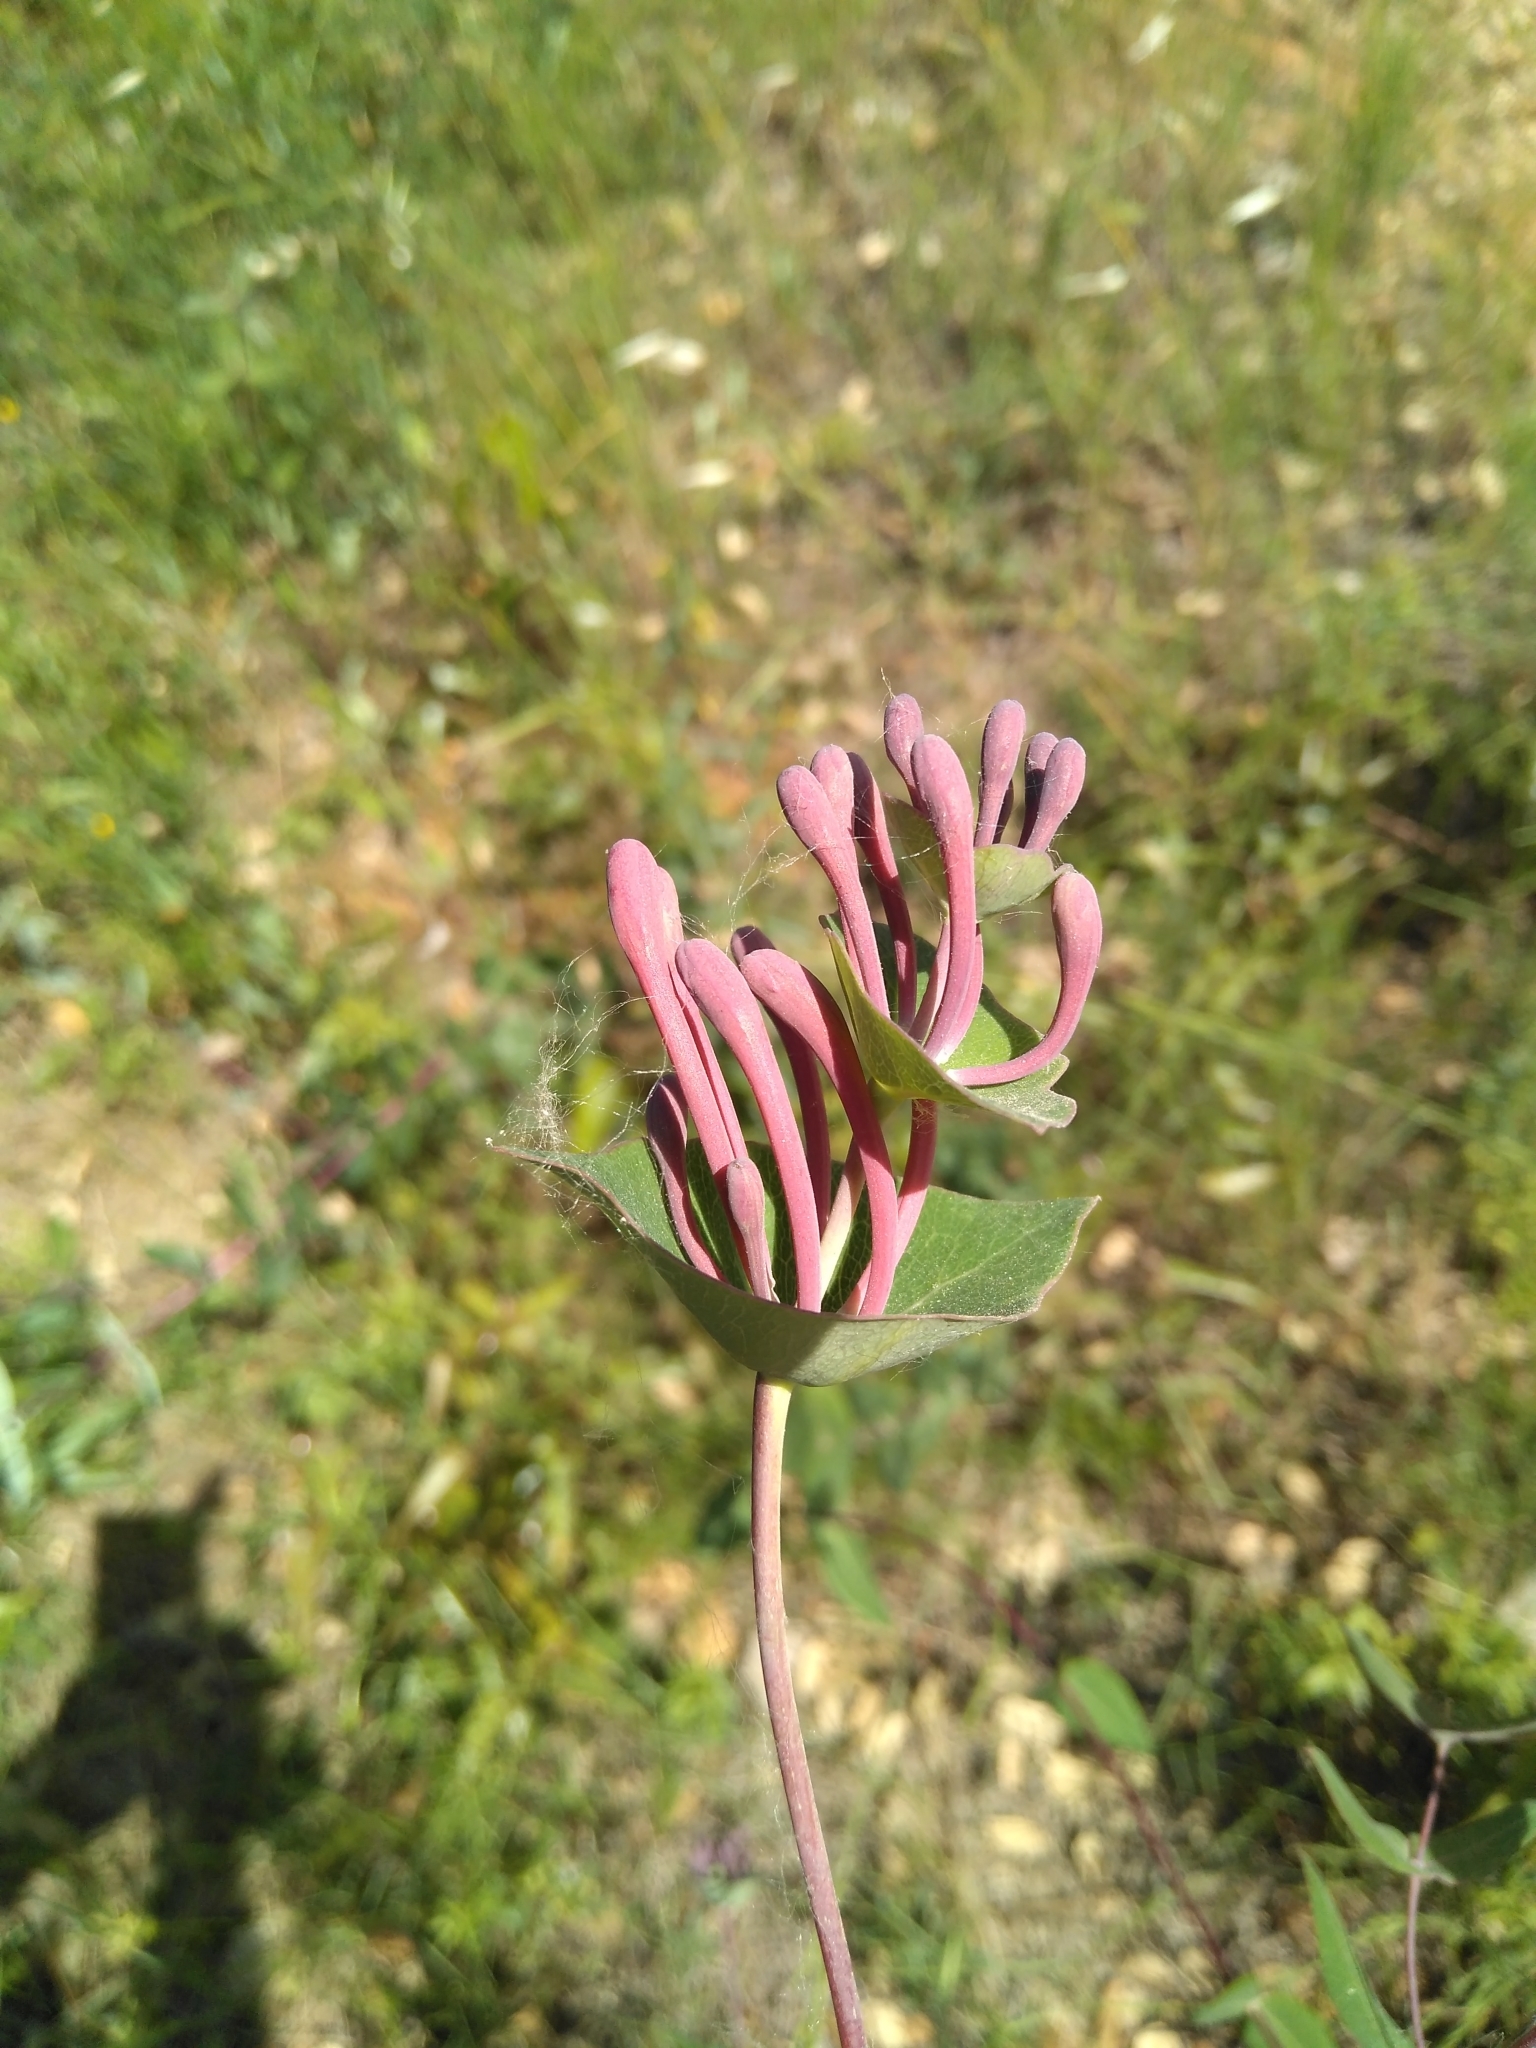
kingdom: Plantae
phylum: Tracheophyta
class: Magnoliopsida
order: Dipsacales
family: Caprifoliaceae
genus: Lonicera
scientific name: Lonicera implexa
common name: Minorca honeysuckle
